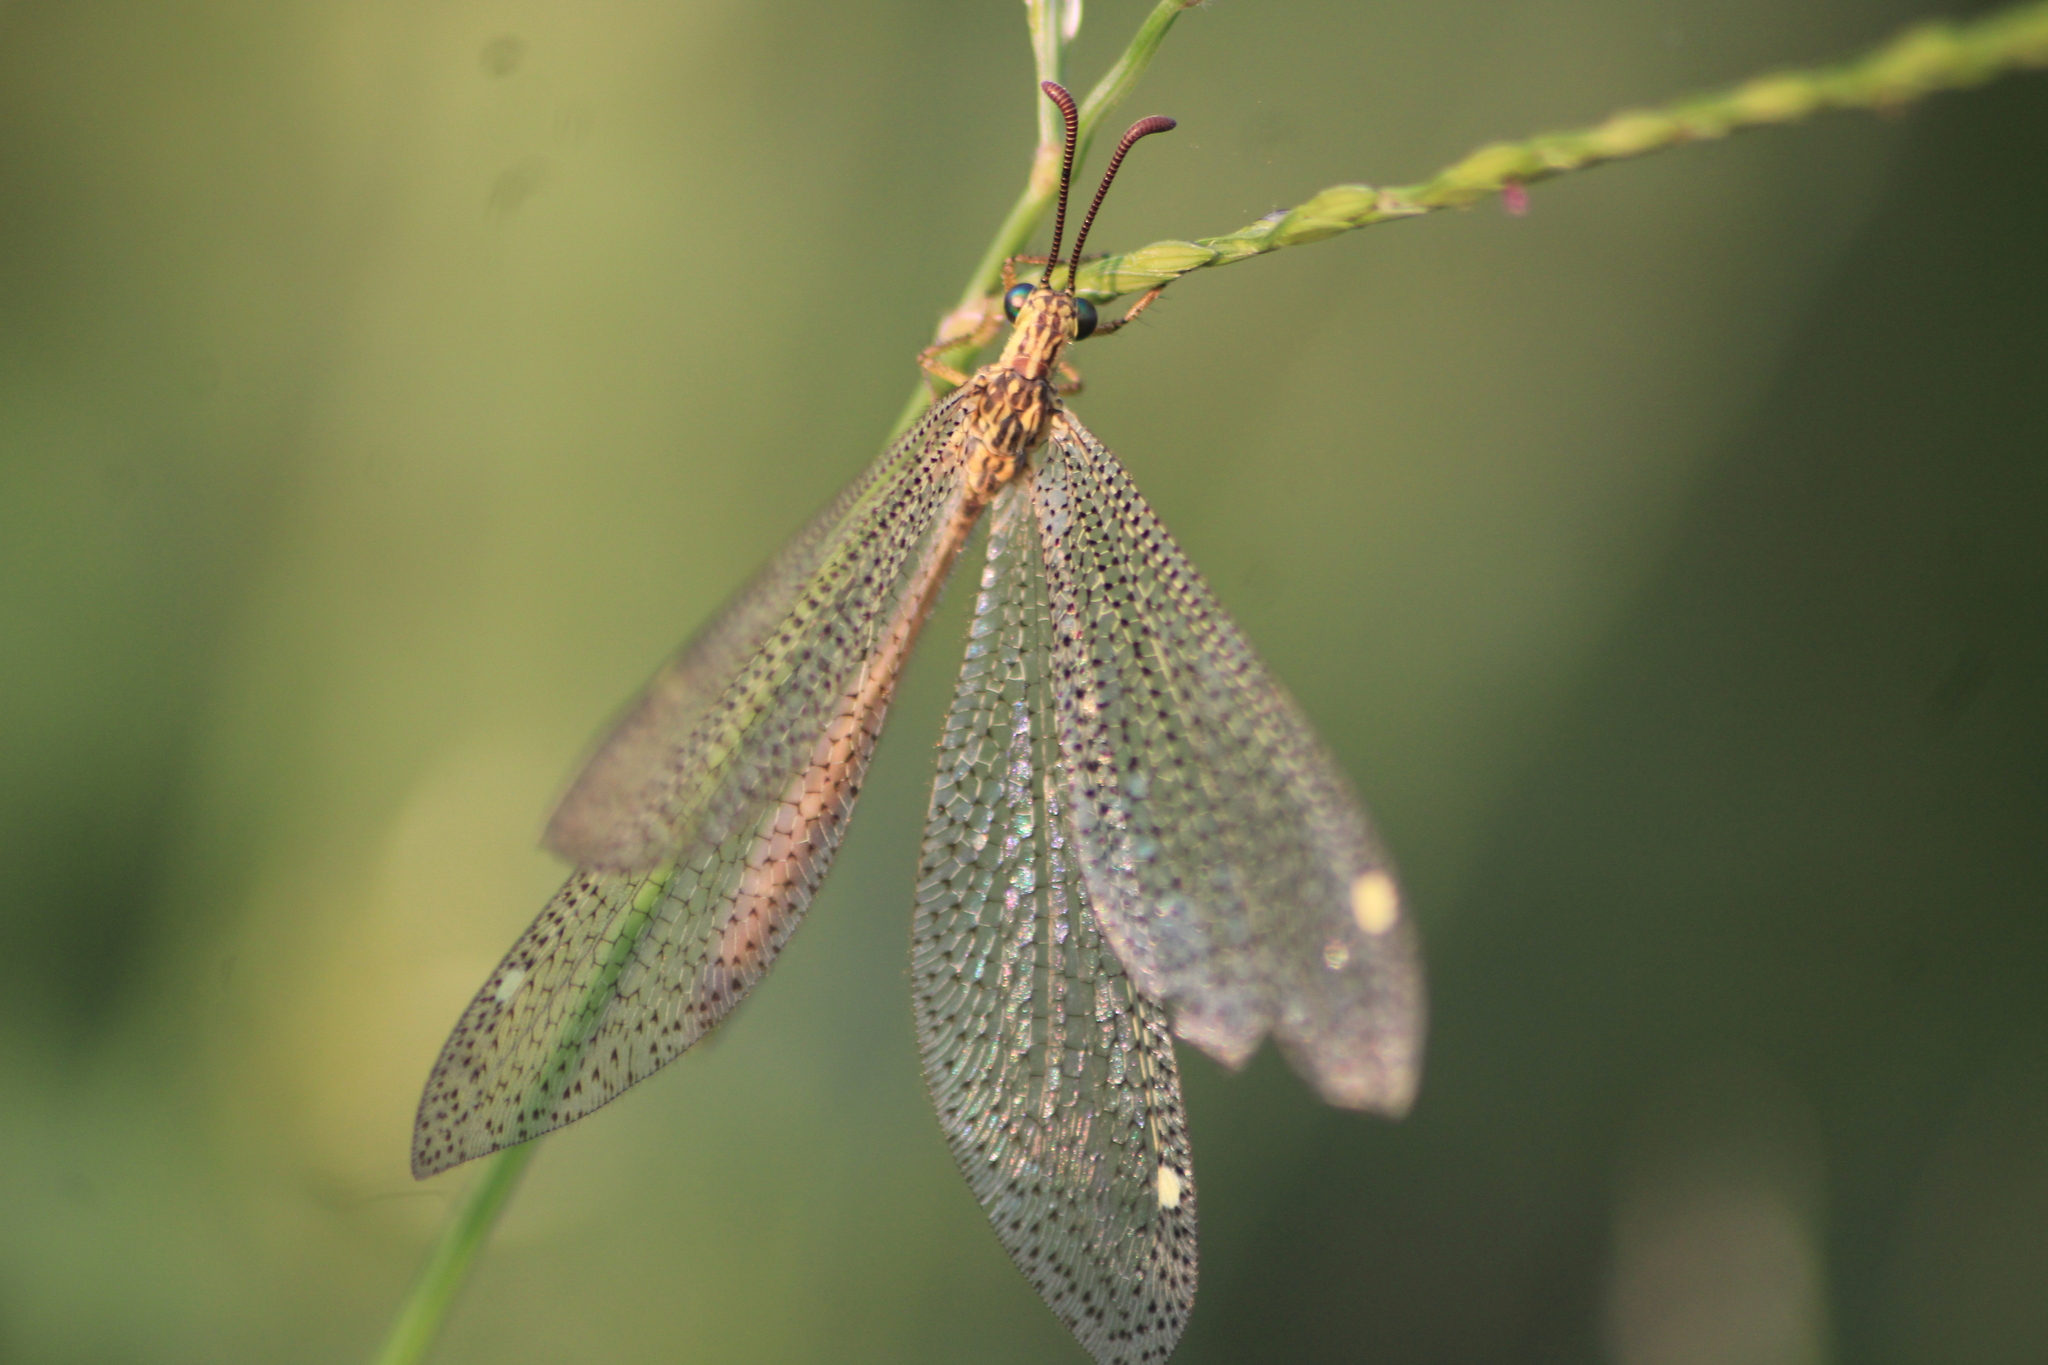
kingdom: Animalia
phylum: Arthropoda
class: Insecta
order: Neuroptera
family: Myrmeleontidae
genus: Brachynemurus
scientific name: Brachynemurus versutus
